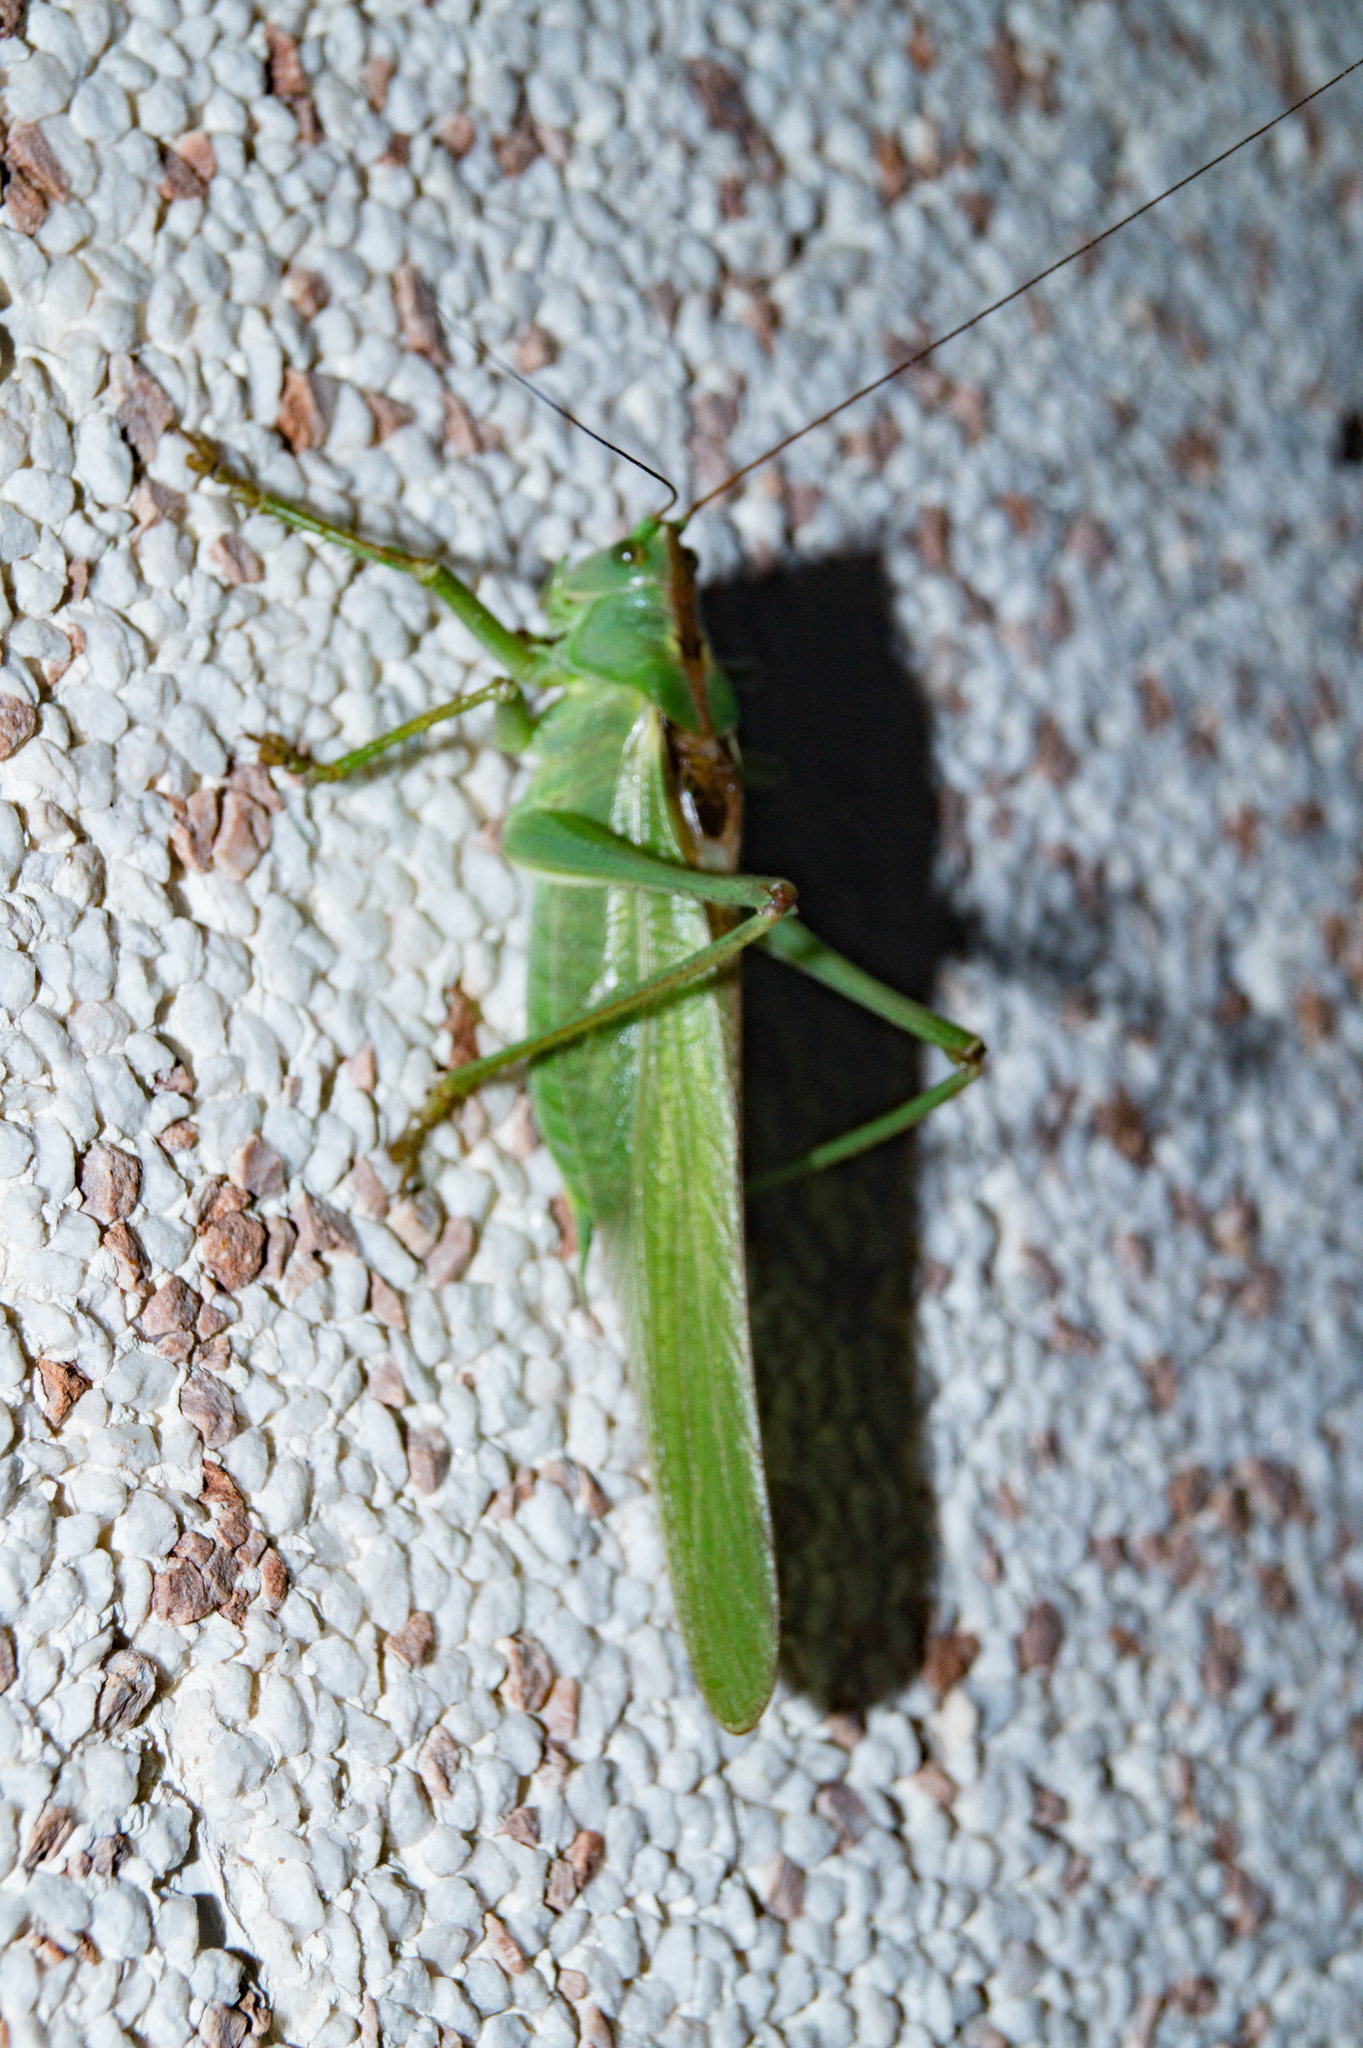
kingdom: Animalia
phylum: Arthropoda
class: Insecta
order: Orthoptera
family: Tettigoniidae
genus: Tettigonia
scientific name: Tettigonia viridissima
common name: Great green bush-cricket
